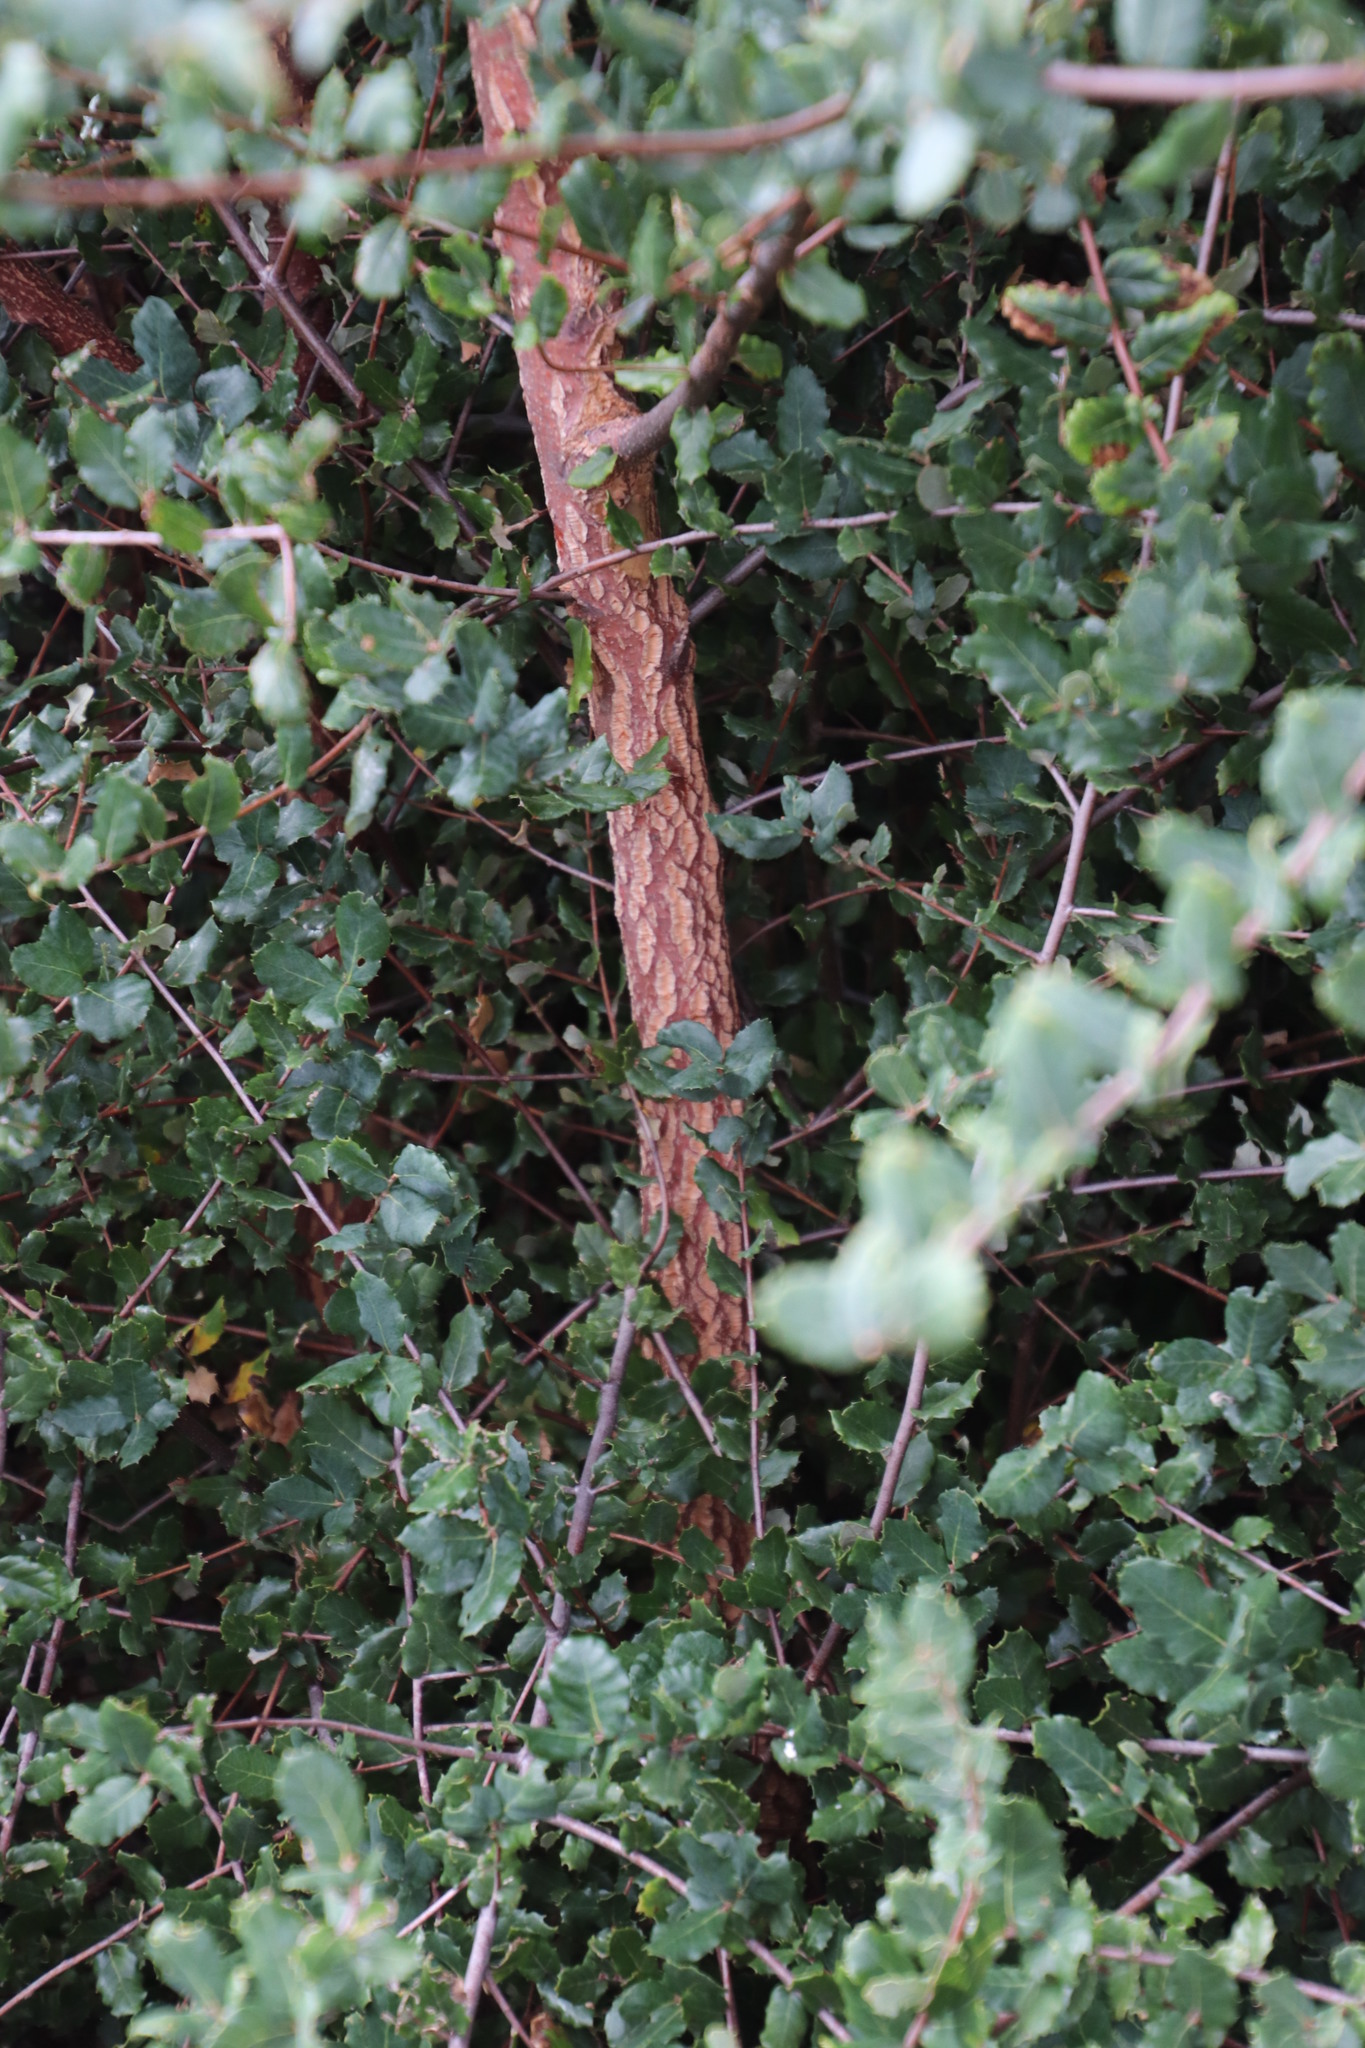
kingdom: Plantae
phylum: Tracheophyta
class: Magnoliopsida
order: Fagales
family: Fagaceae
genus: Quercus
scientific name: Quercus suber
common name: Cork oak
